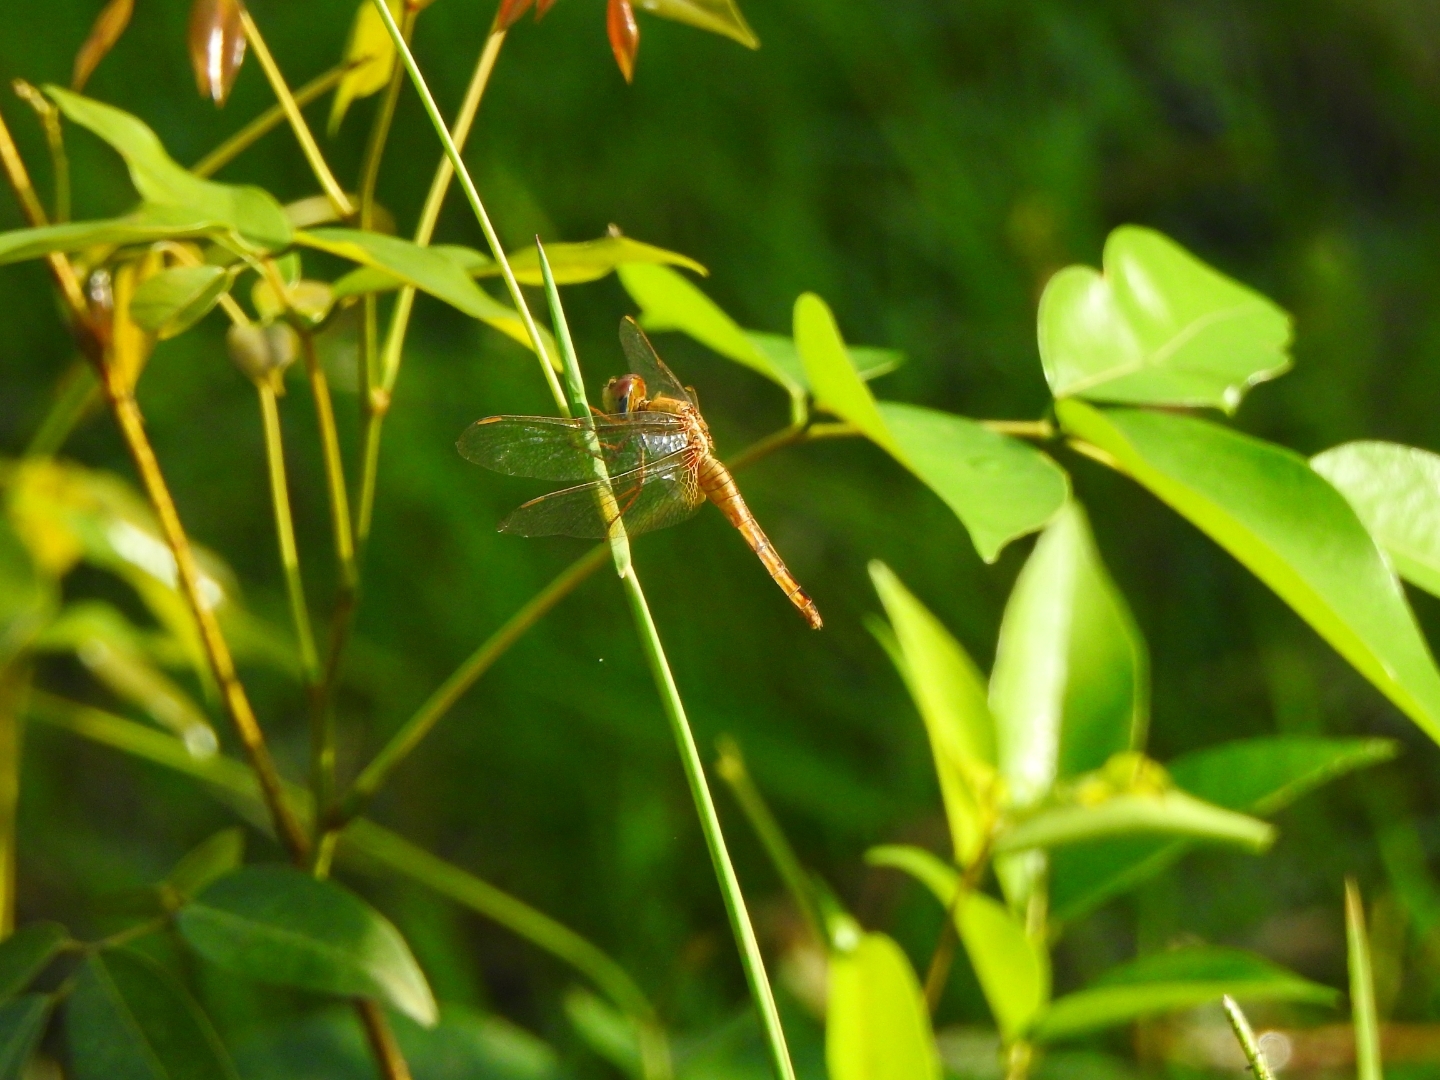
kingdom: Animalia
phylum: Arthropoda
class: Insecta
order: Odonata
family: Libellulidae
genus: Crocothemis
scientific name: Crocothemis servilia
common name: Scarlet skimmer
